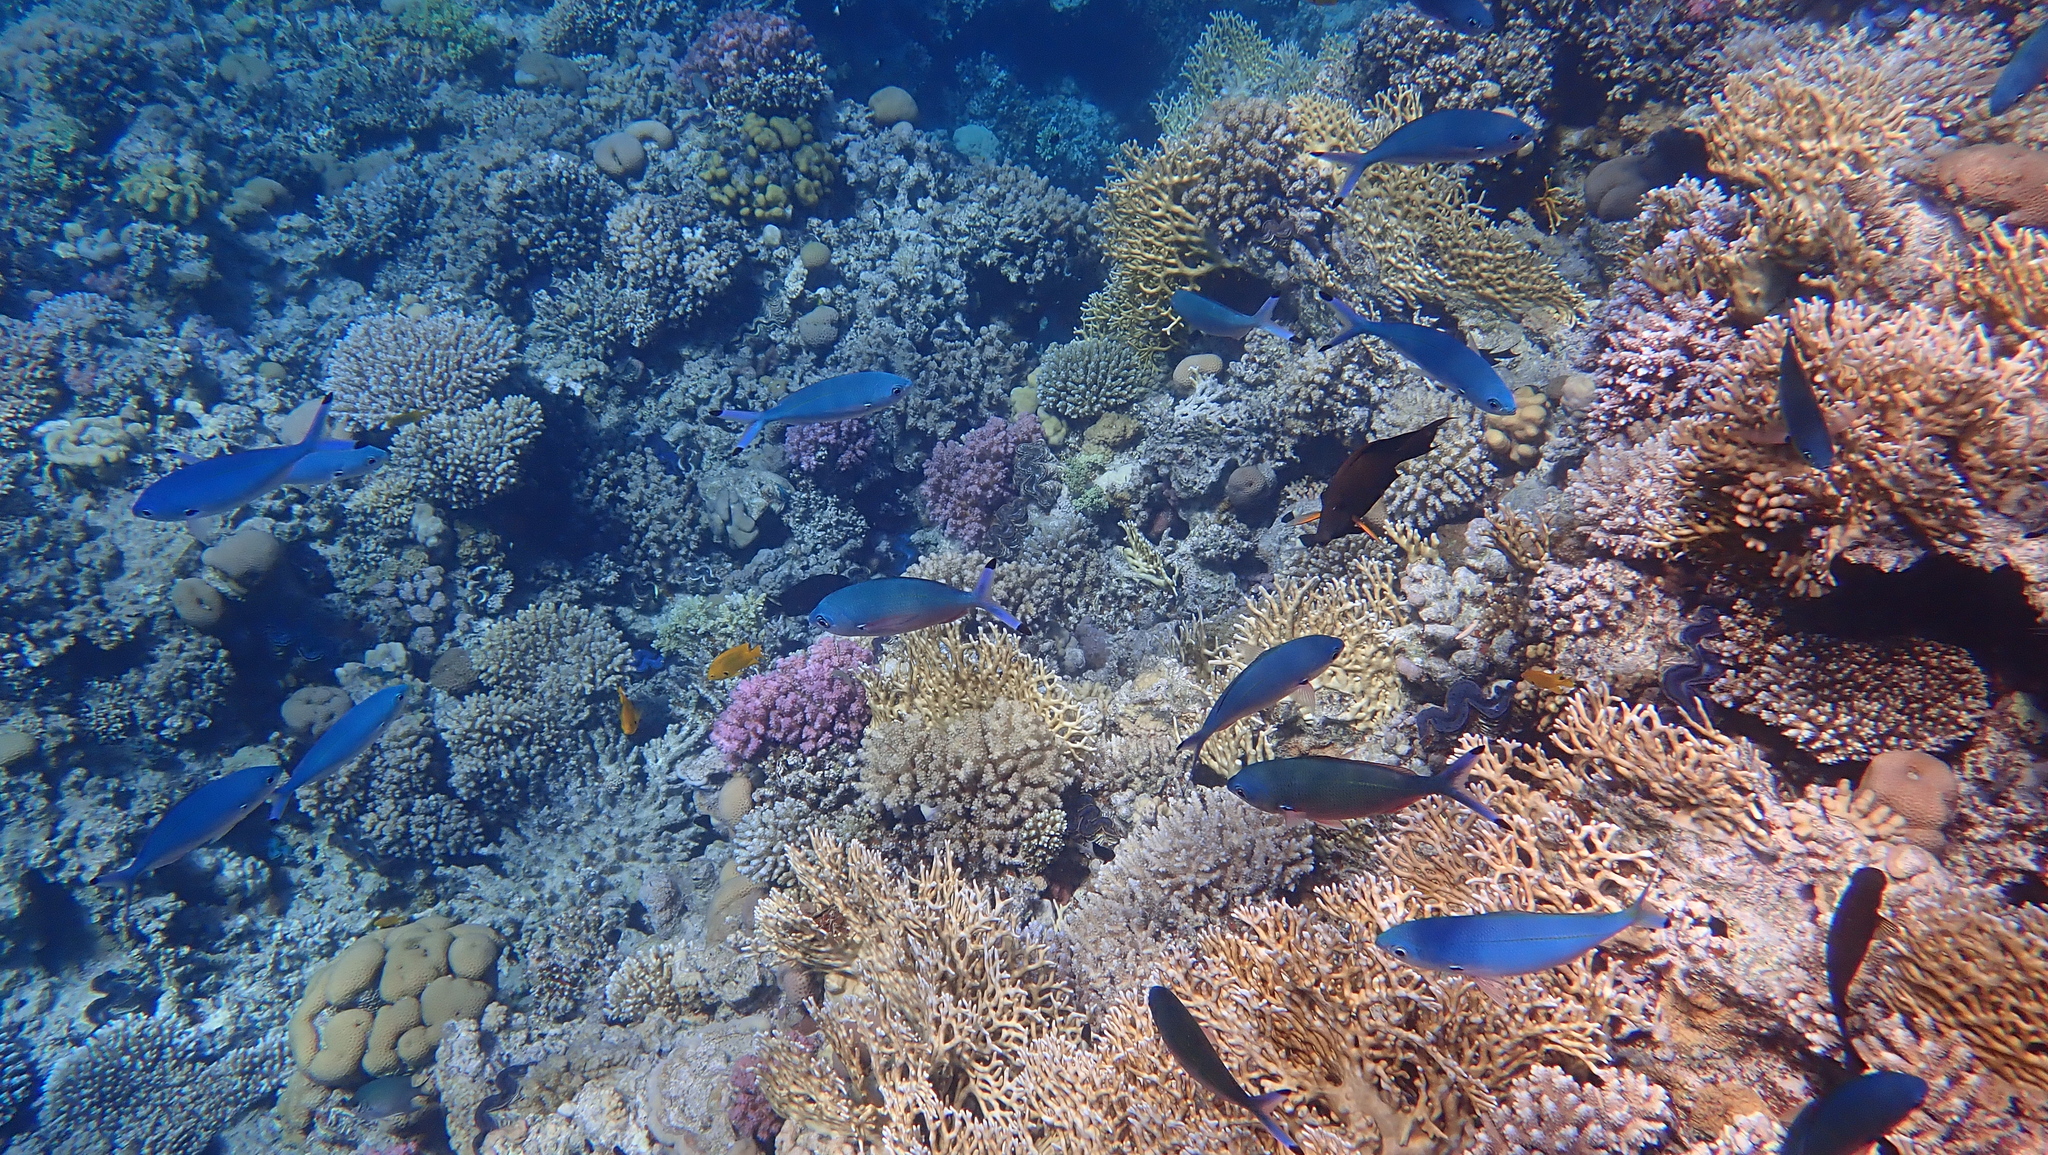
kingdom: Animalia
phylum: Chordata
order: Perciformes
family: Caesionidae
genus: Caesio
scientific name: Caesio lunaris
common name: Blue fusilier
